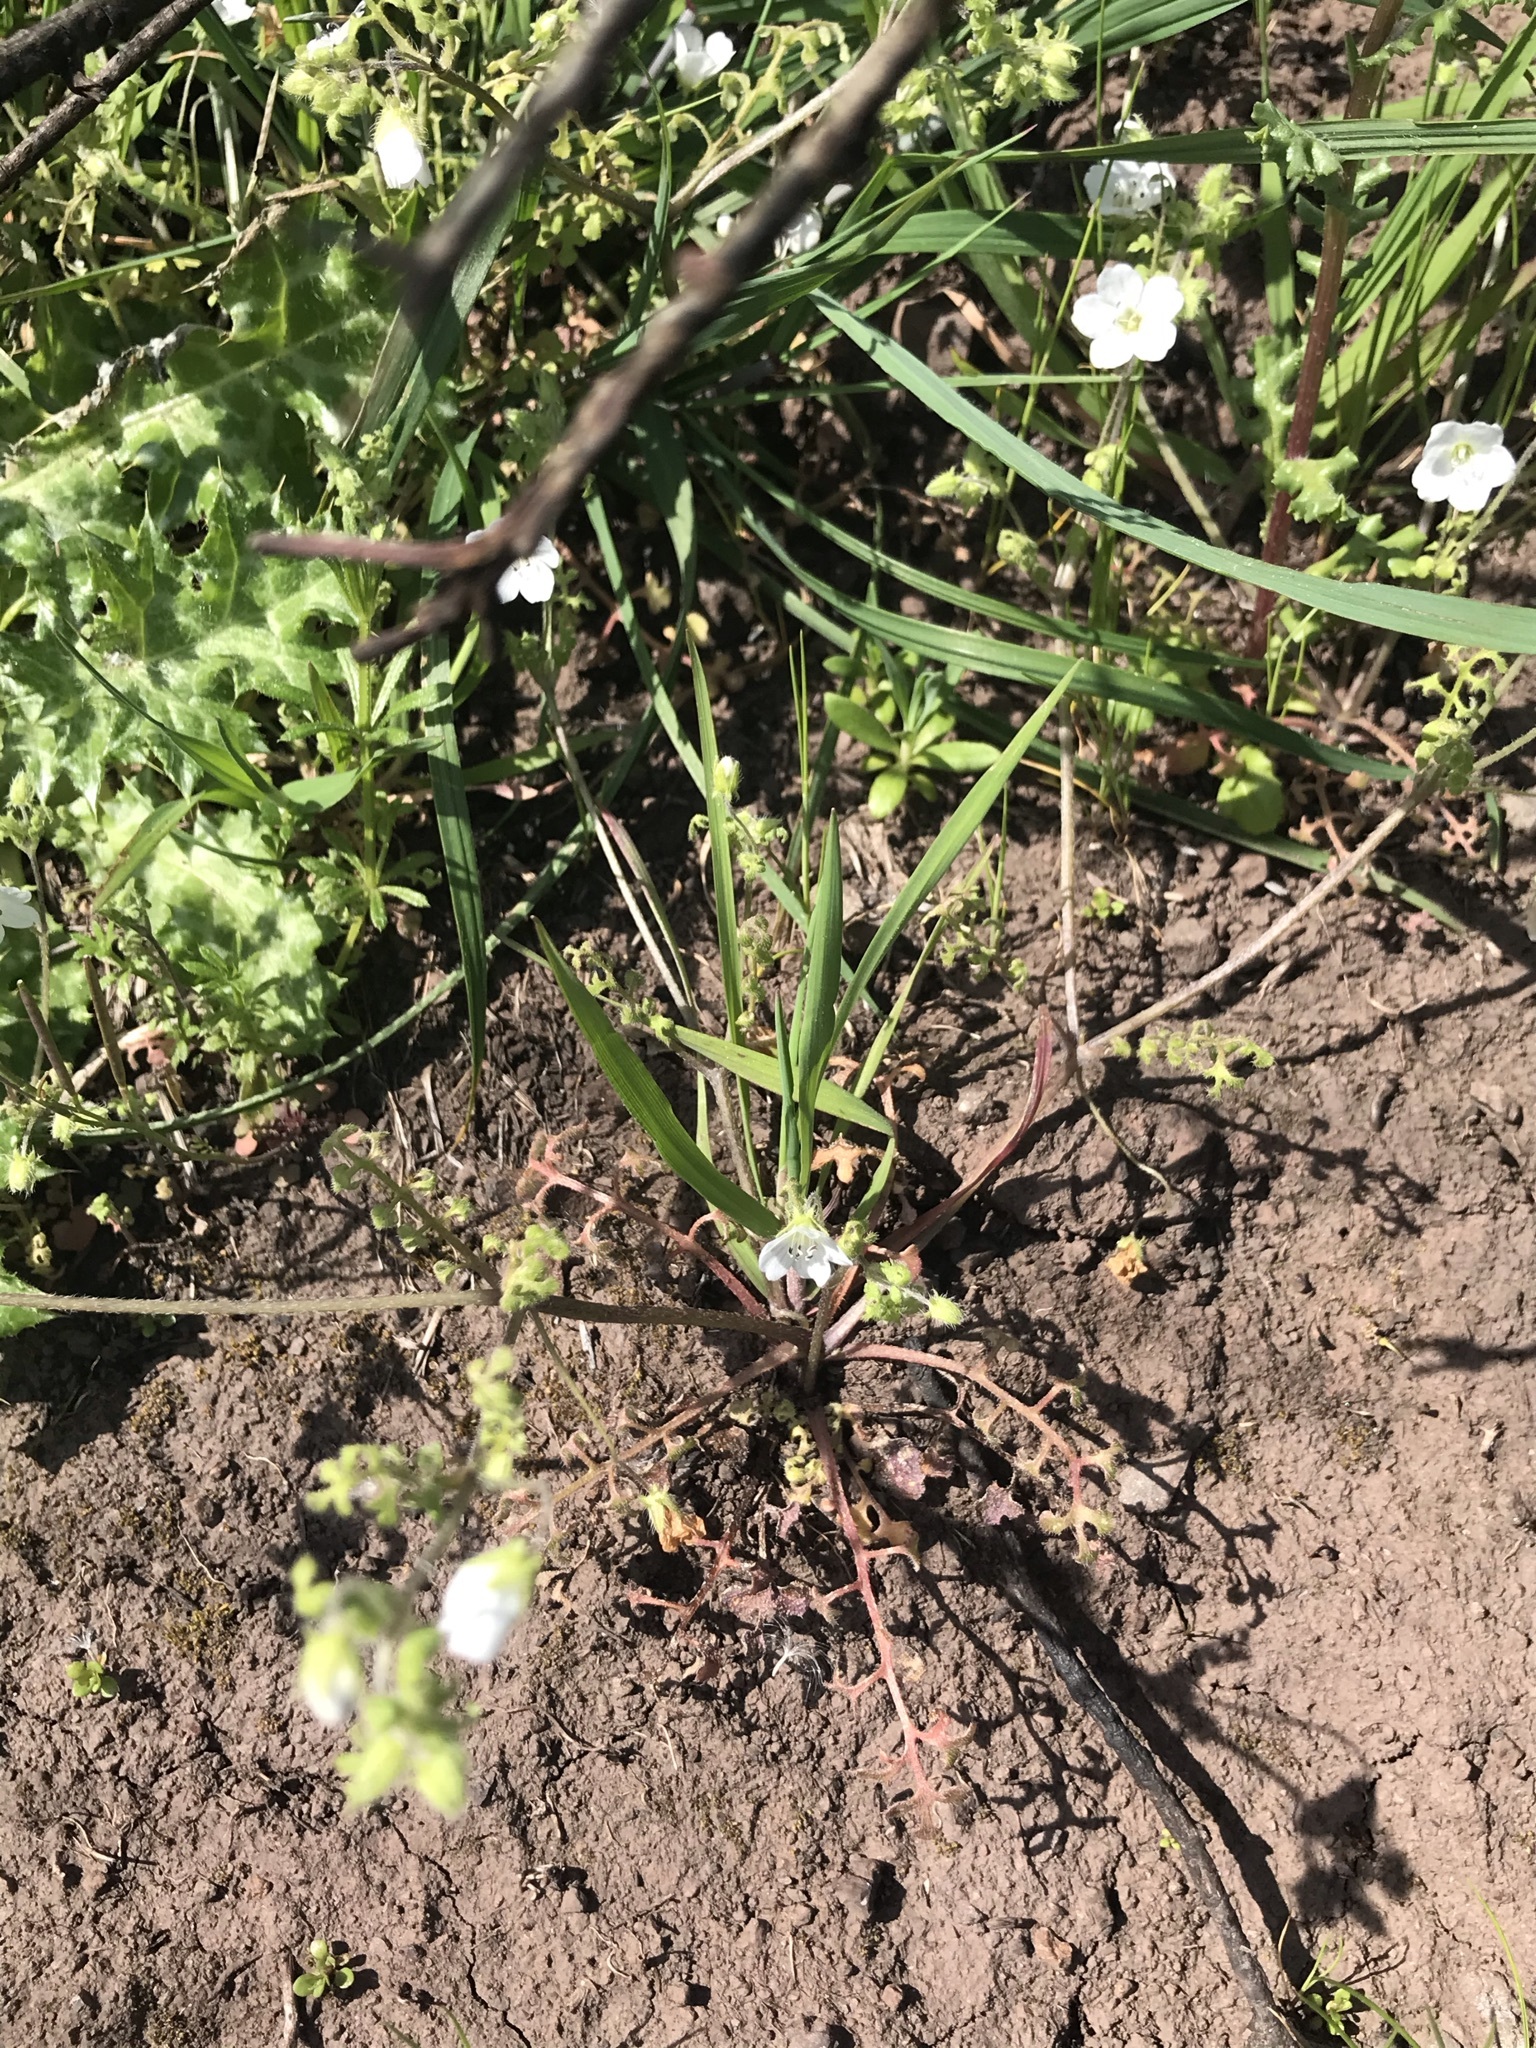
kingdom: Plantae
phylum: Tracheophyta
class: Magnoliopsida
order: Boraginales
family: Hydrophyllaceae
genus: Nemophila
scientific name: Nemophila heterophylla
